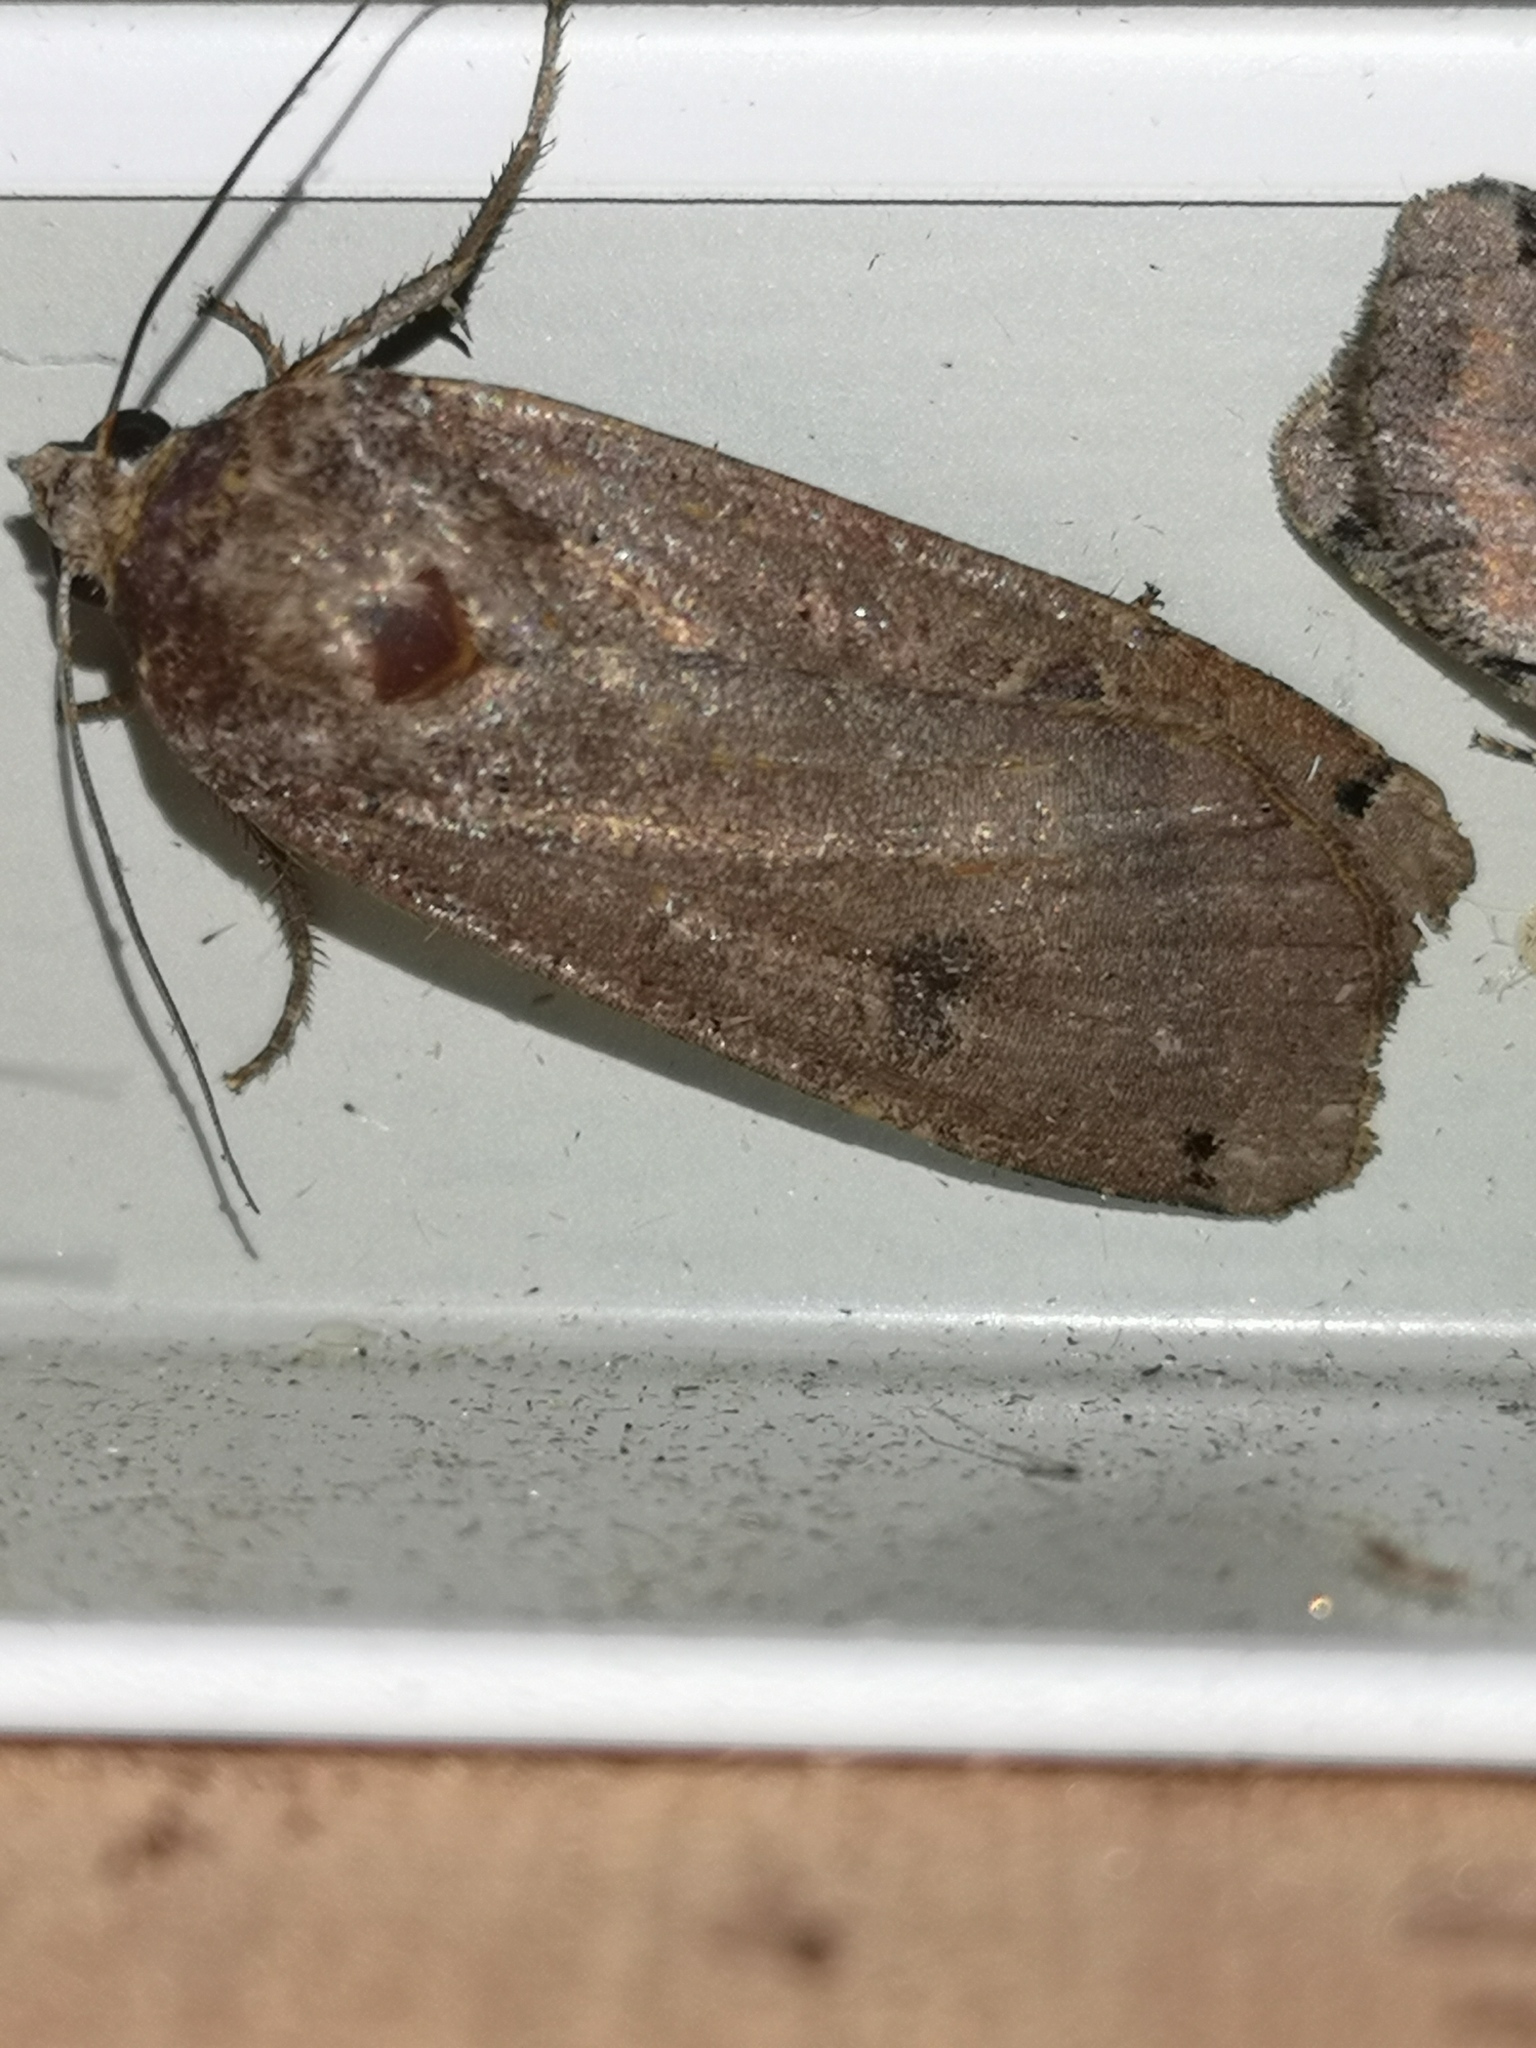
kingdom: Animalia
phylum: Arthropoda
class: Insecta
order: Lepidoptera
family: Noctuidae
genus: Noctua
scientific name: Noctua pronuba
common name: Large yellow underwing
